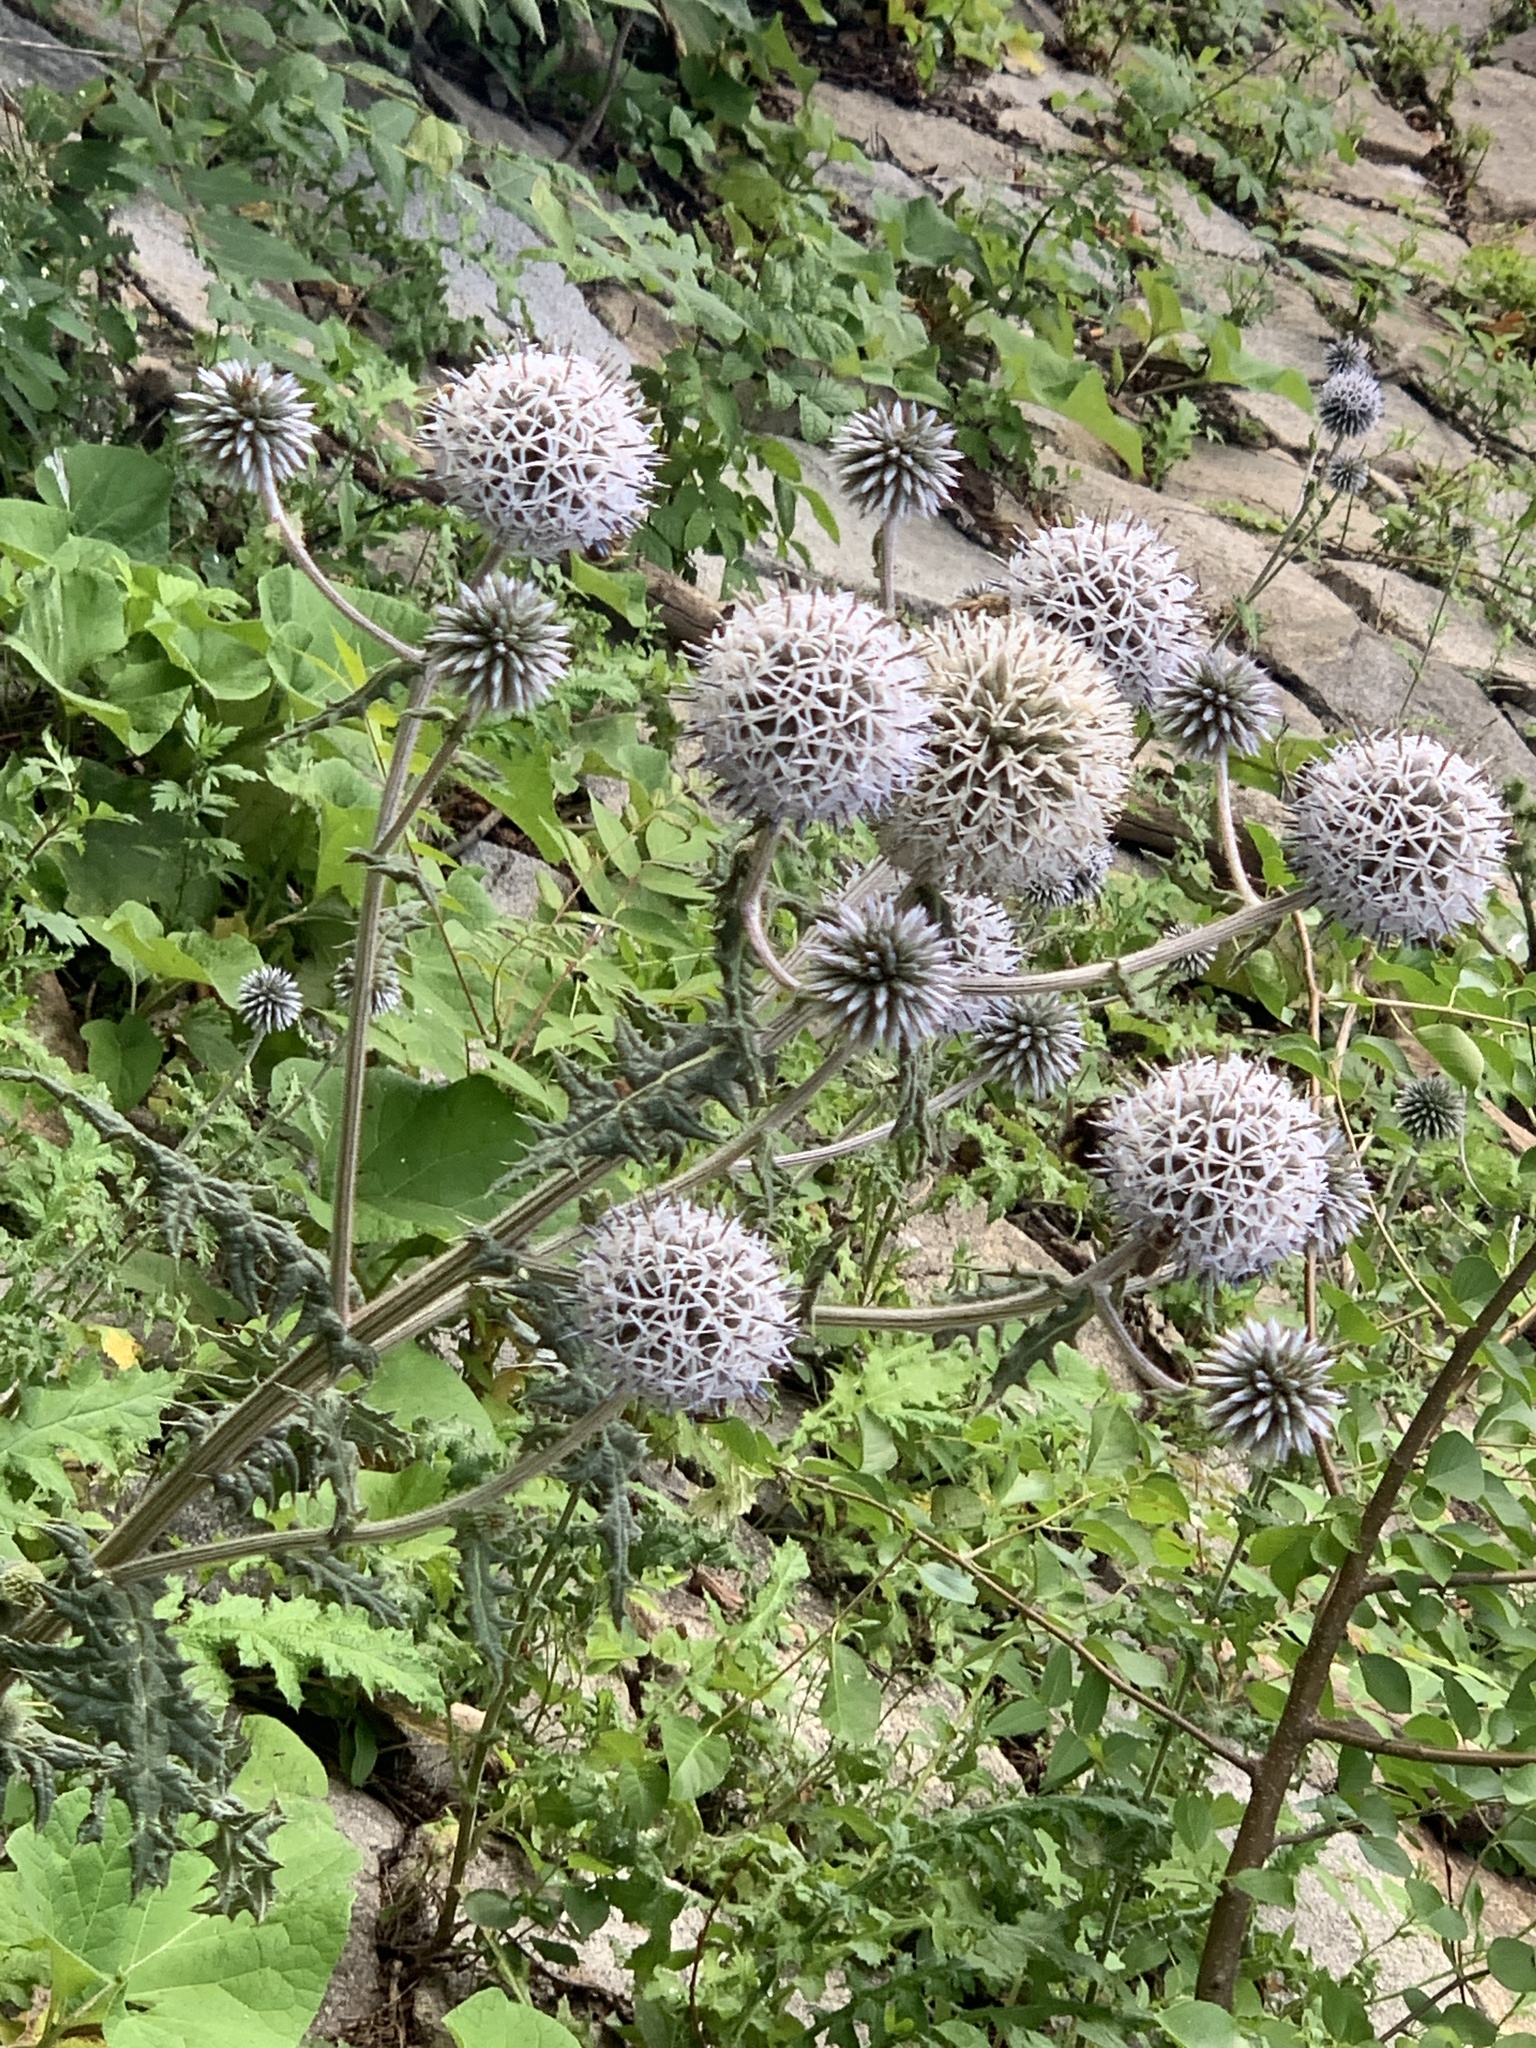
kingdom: Plantae
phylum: Tracheophyta
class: Magnoliopsida
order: Asterales
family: Asteraceae
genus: Echinops
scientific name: Echinops sphaerocephalus
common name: Glandular globe-thistle
